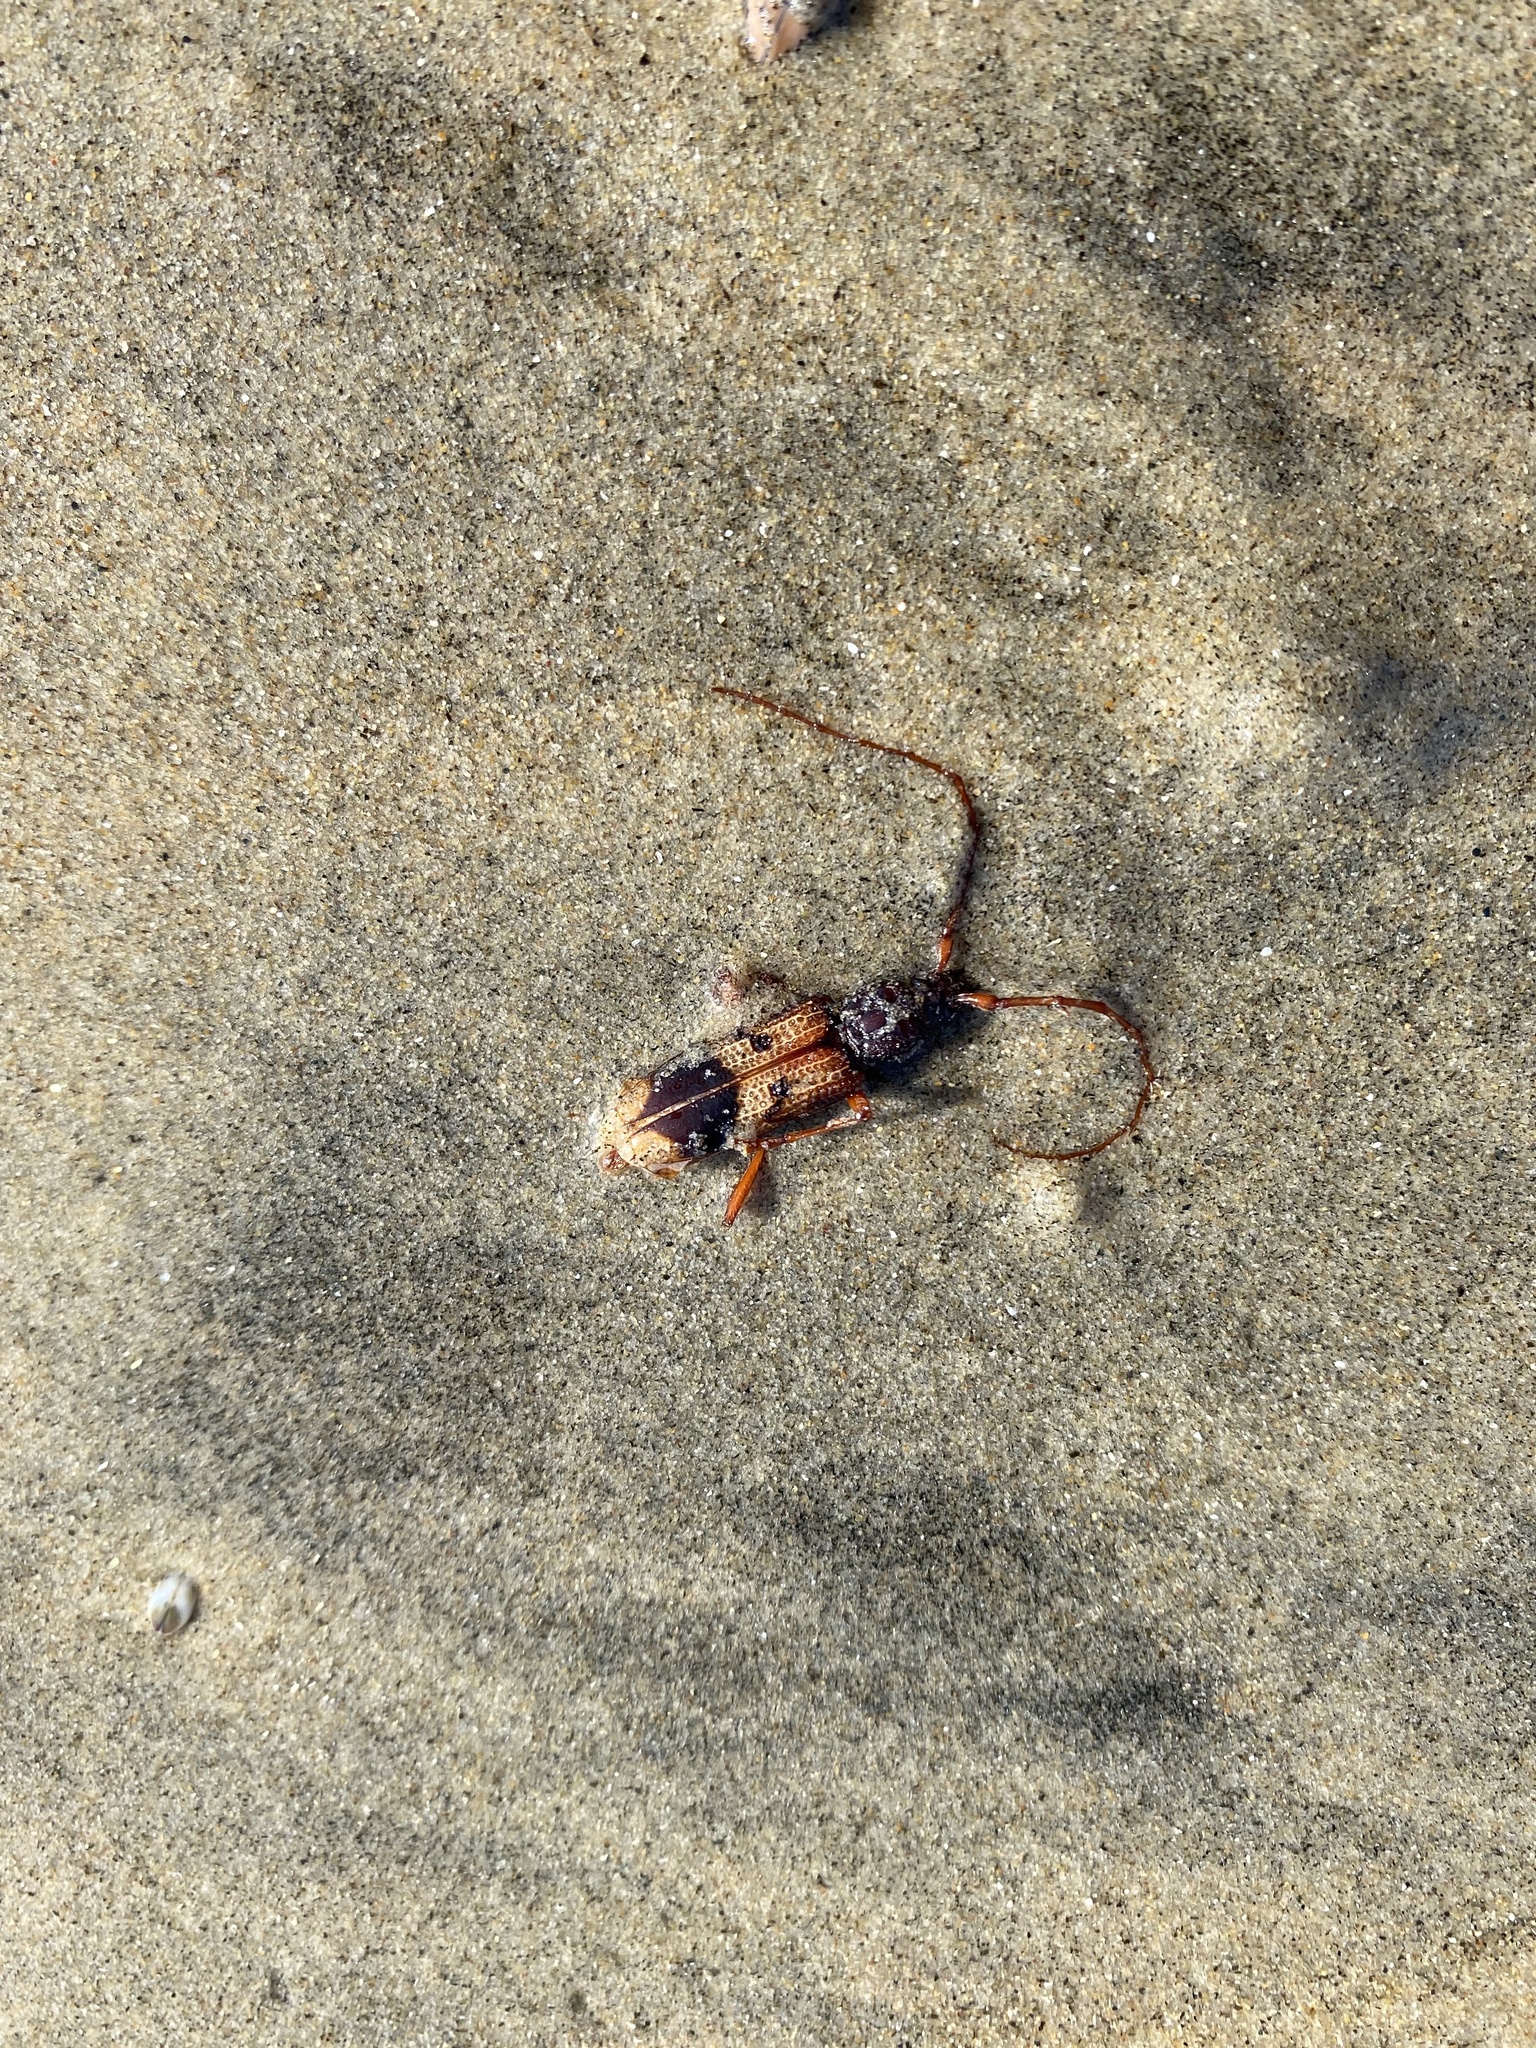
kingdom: Animalia
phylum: Arthropoda
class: Insecta
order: Coleoptera
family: Cerambycidae
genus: Phoracantha
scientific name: Phoracantha recurva
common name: Eucalyptus longhorned borer
